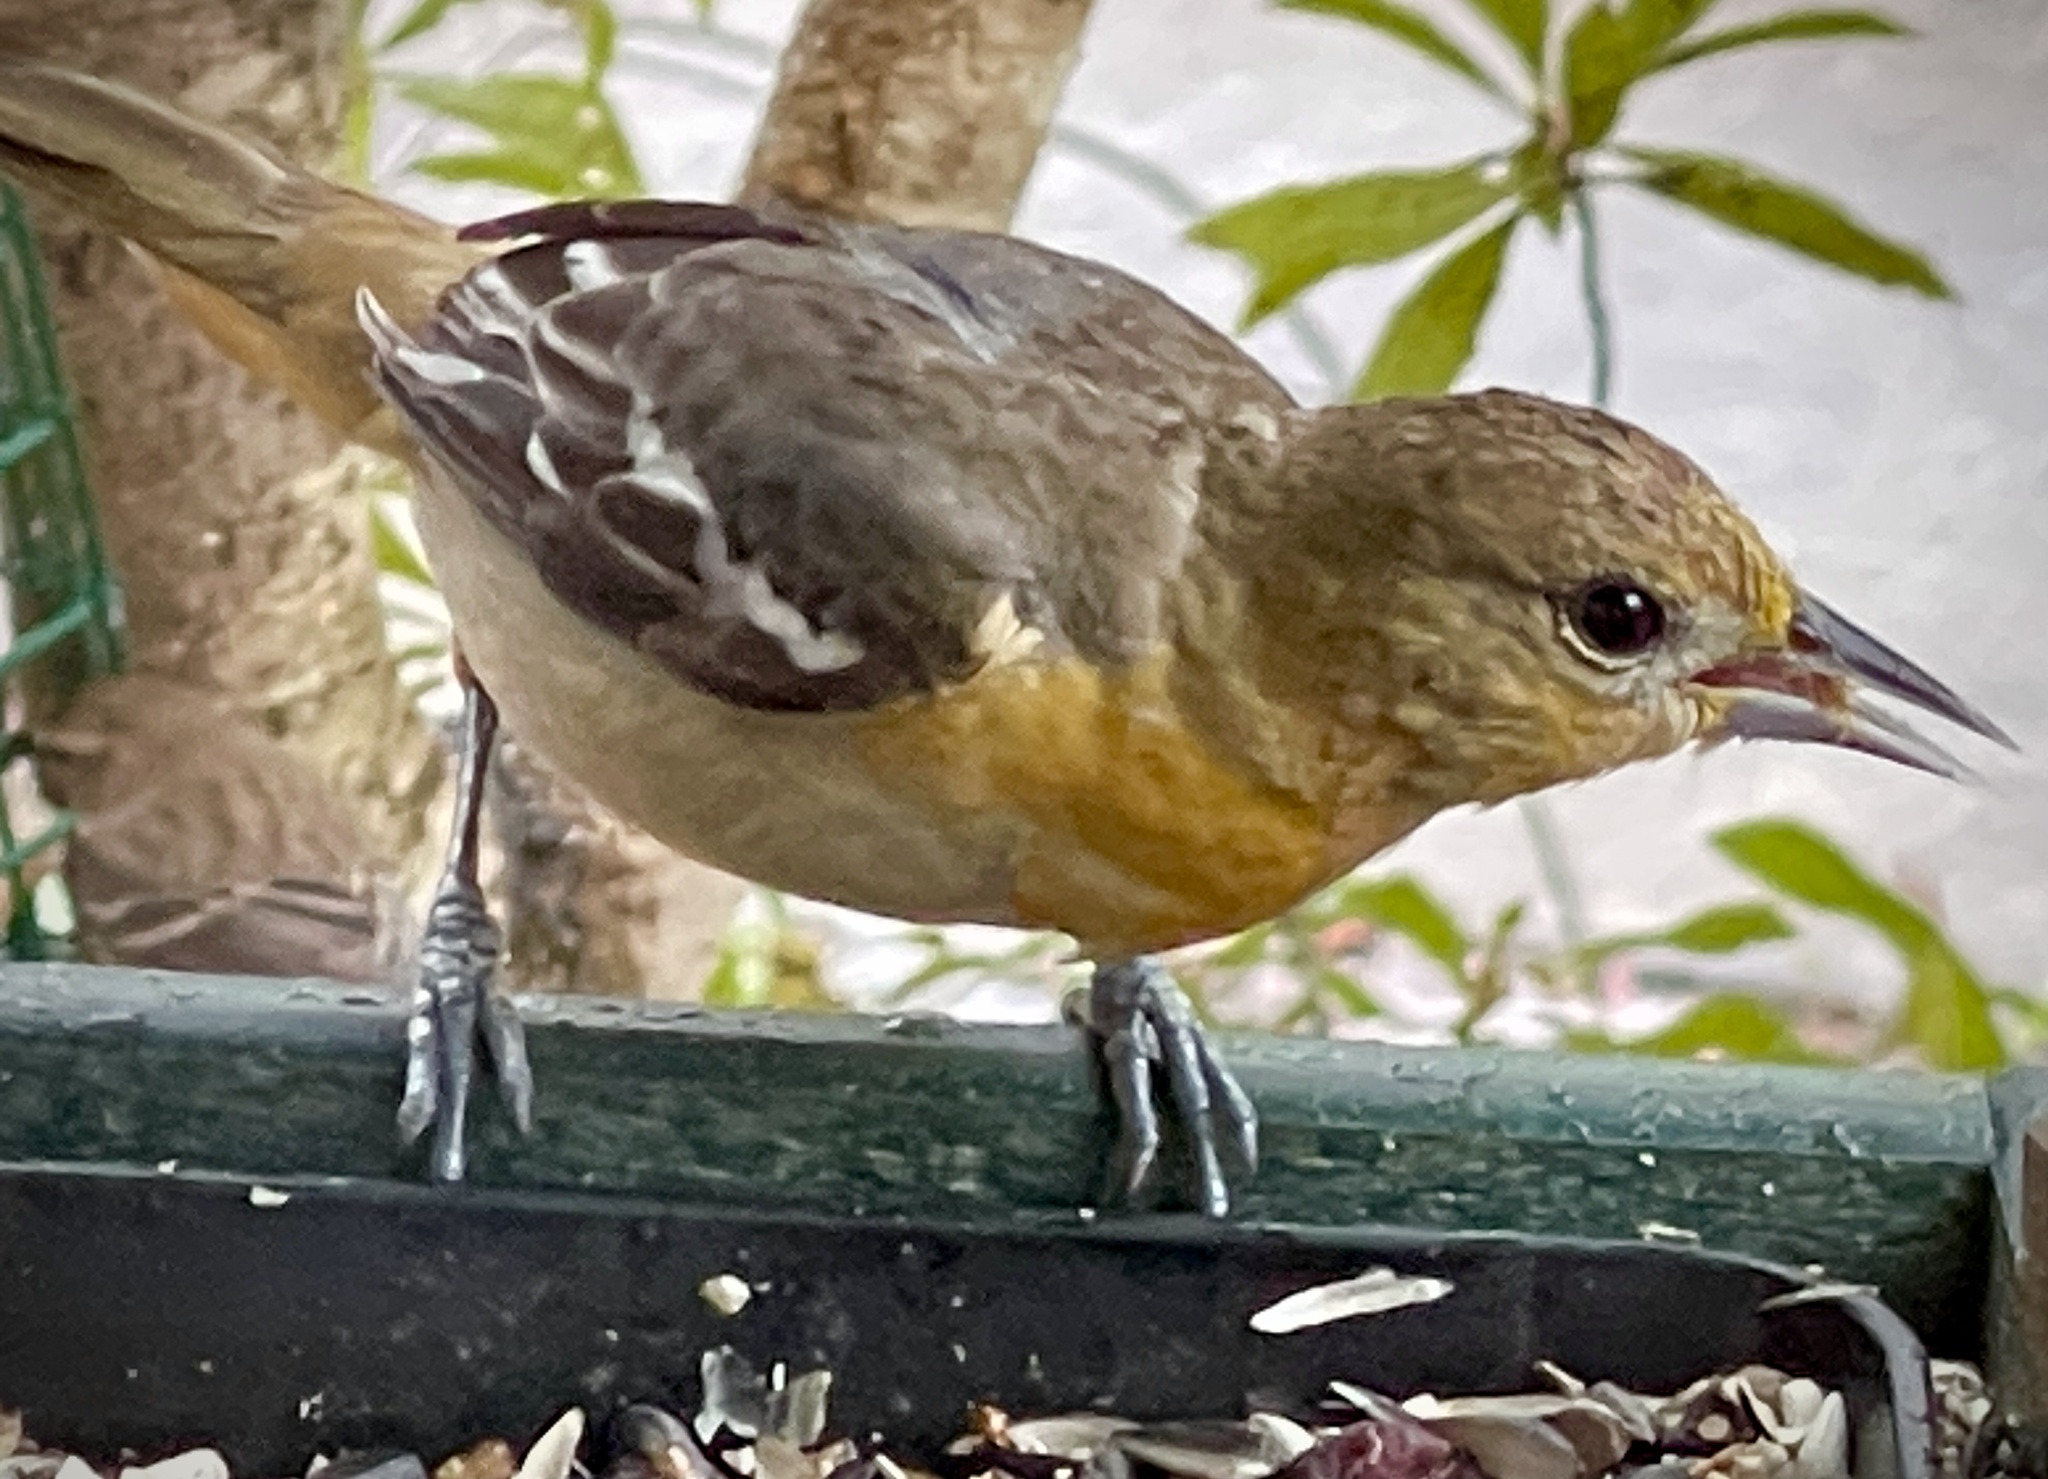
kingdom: Animalia
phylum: Chordata
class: Aves
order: Passeriformes
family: Icteridae
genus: Icterus
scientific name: Icterus galbula
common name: Baltimore oriole
